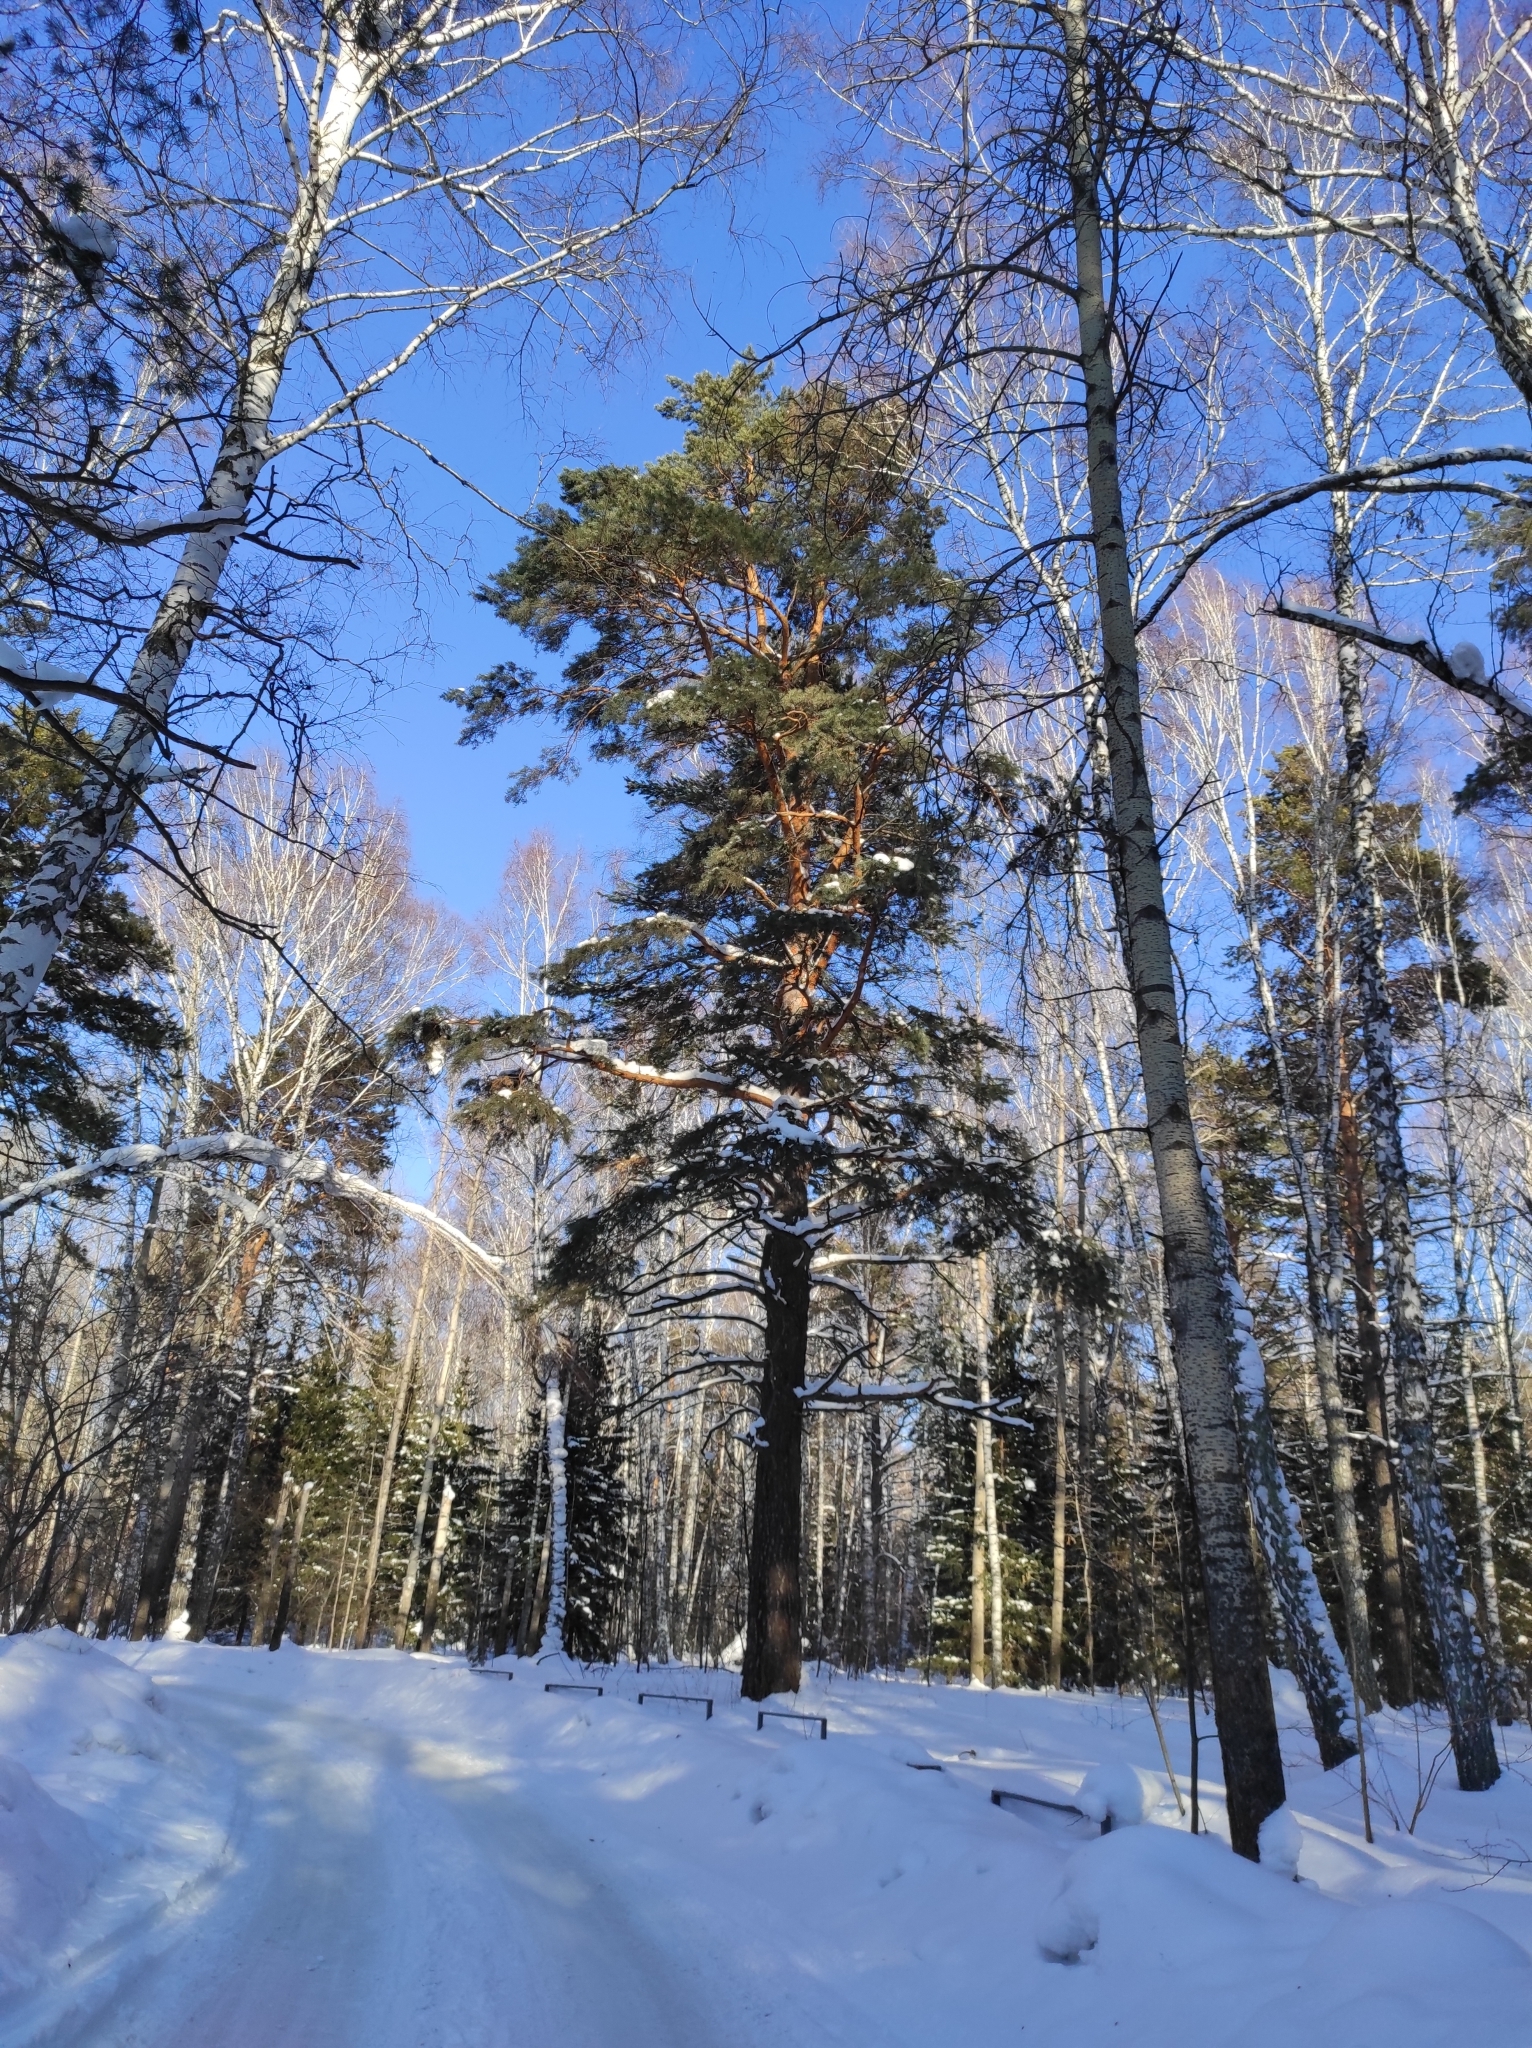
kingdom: Plantae
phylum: Tracheophyta
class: Pinopsida
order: Pinales
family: Pinaceae
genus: Pinus
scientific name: Pinus sylvestris
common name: Scots pine
